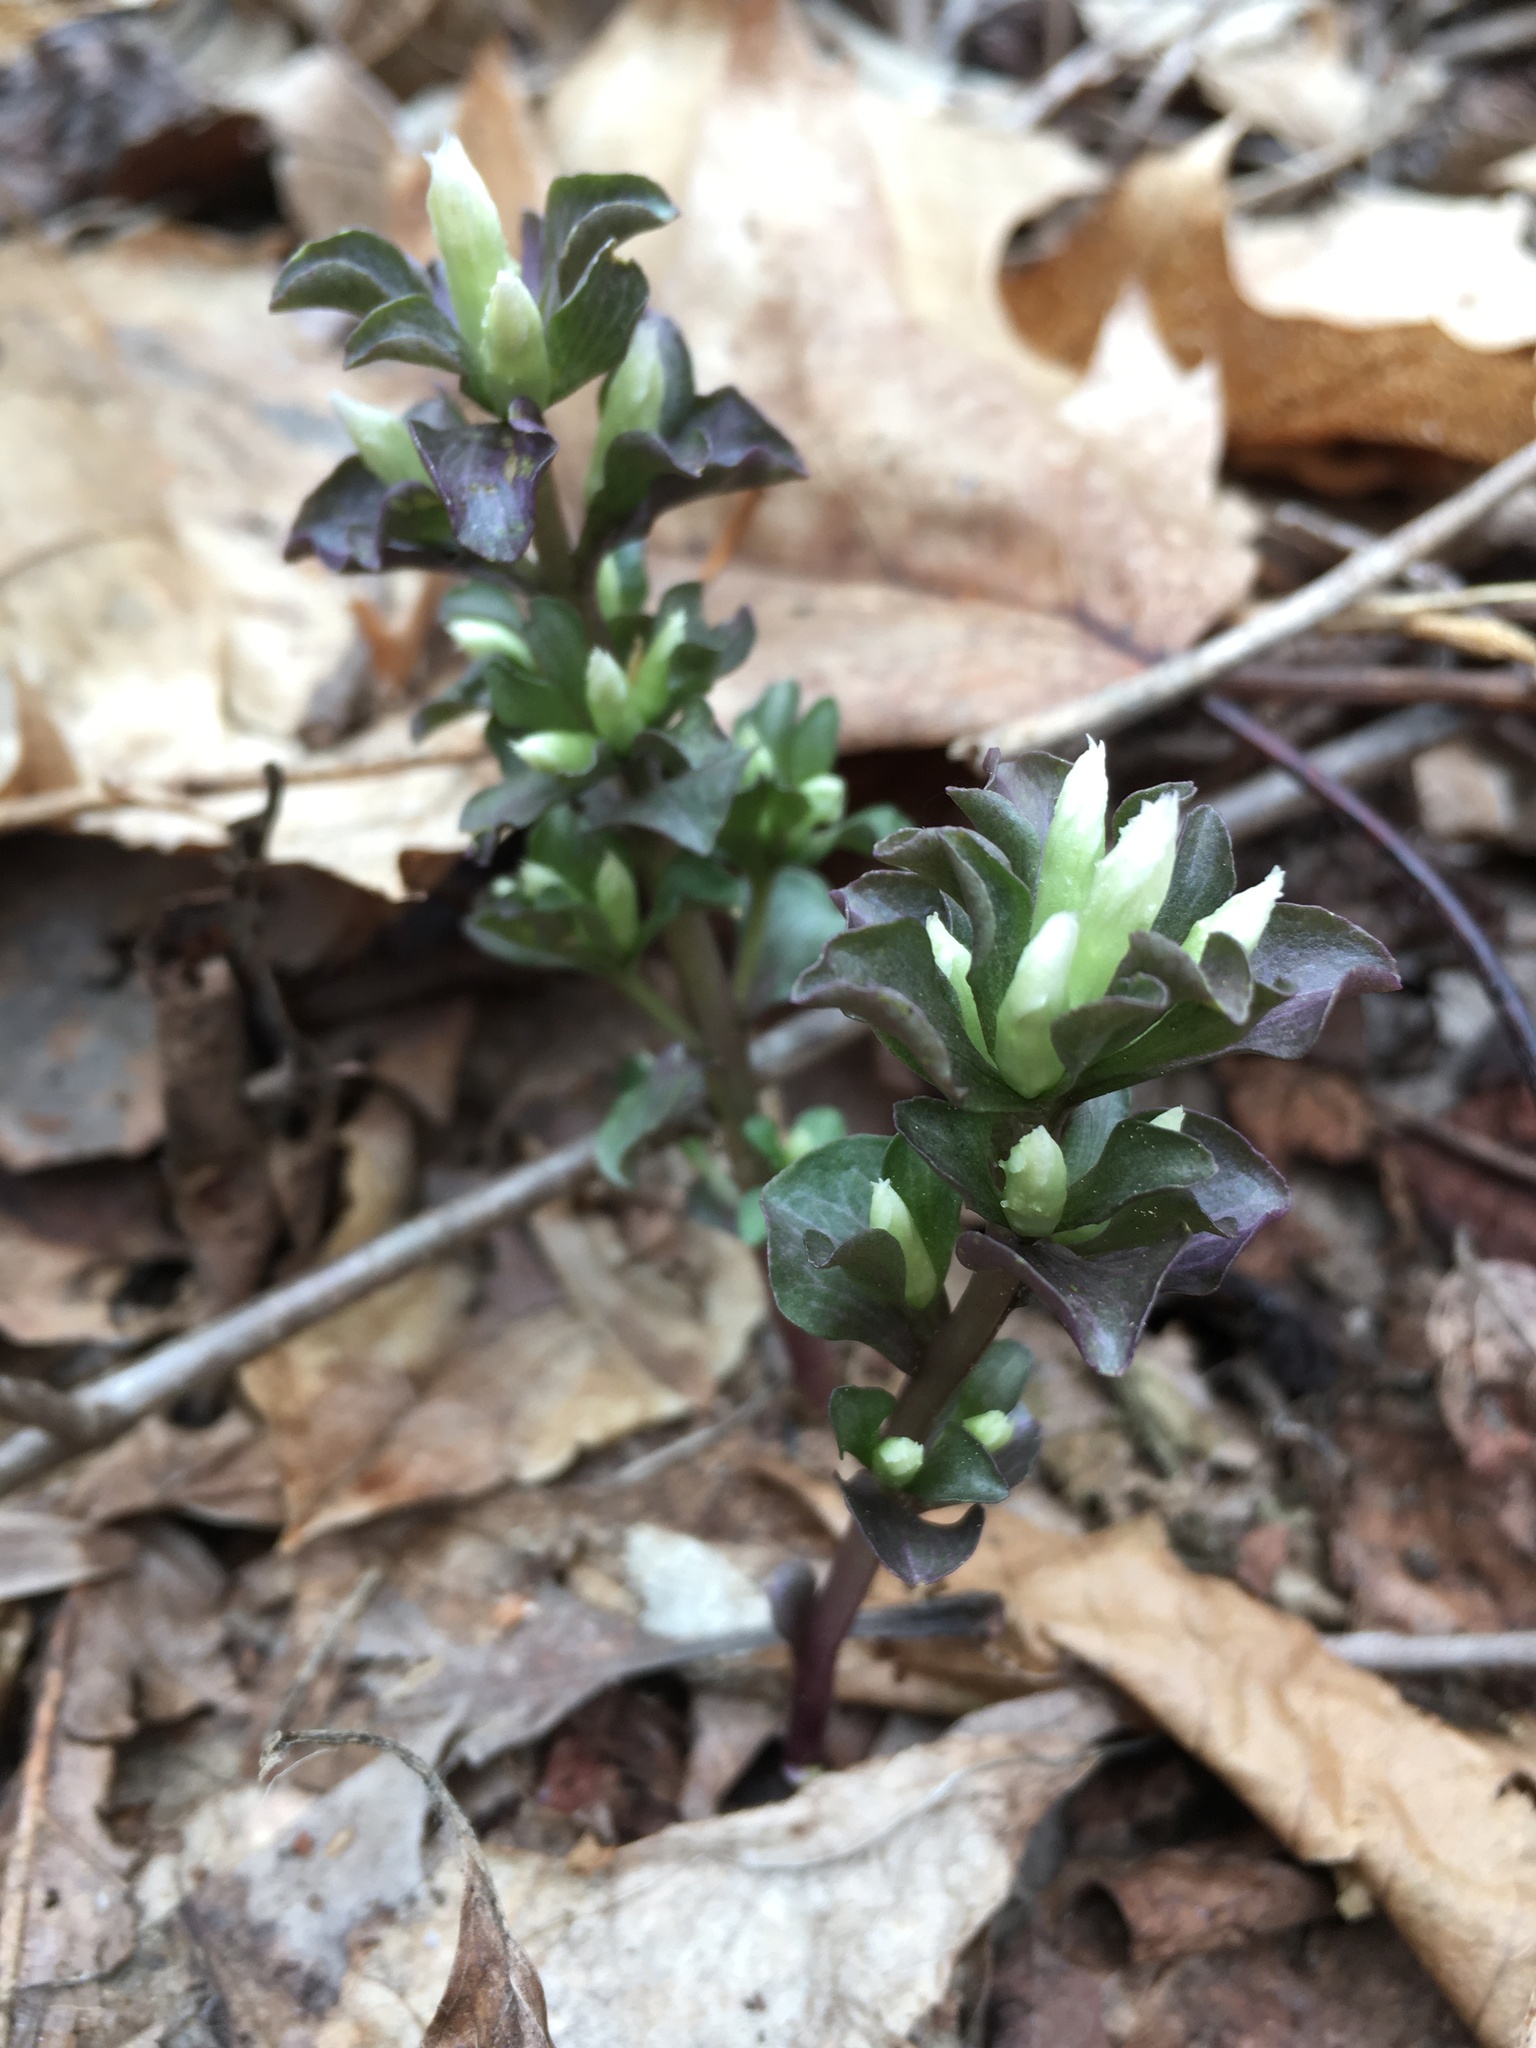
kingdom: Plantae
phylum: Tracheophyta
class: Magnoliopsida
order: Gentianales
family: Gentianaceae
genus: Obolaria
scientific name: Obolaria virginica
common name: Pennywort
